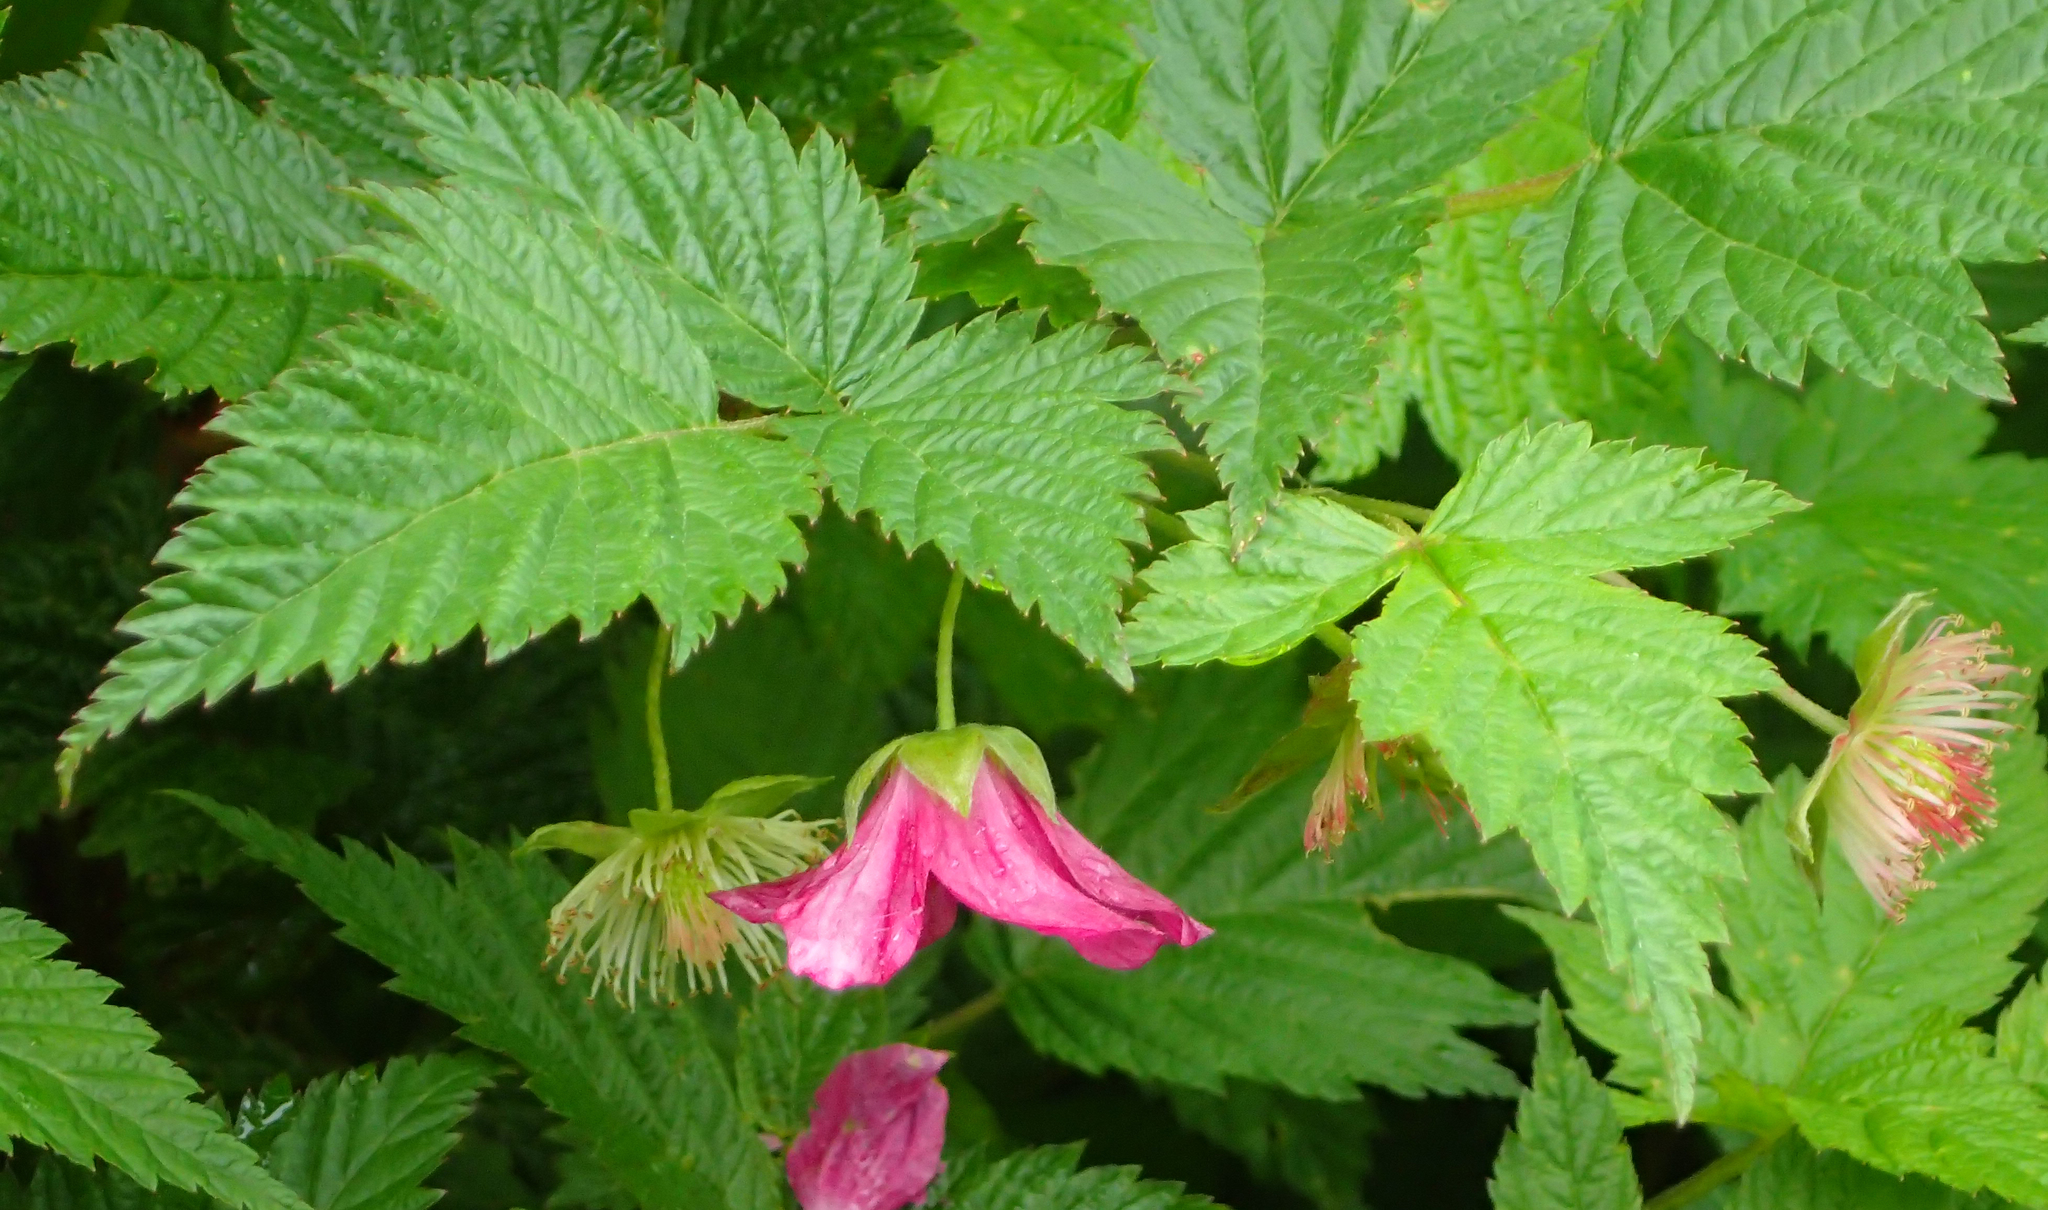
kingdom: Plantae
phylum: Tracheophyta
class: Magnoliopsida
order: Rosales
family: Rosaceae
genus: Rubus
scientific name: Rubus spectabilis
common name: Salmonberry
